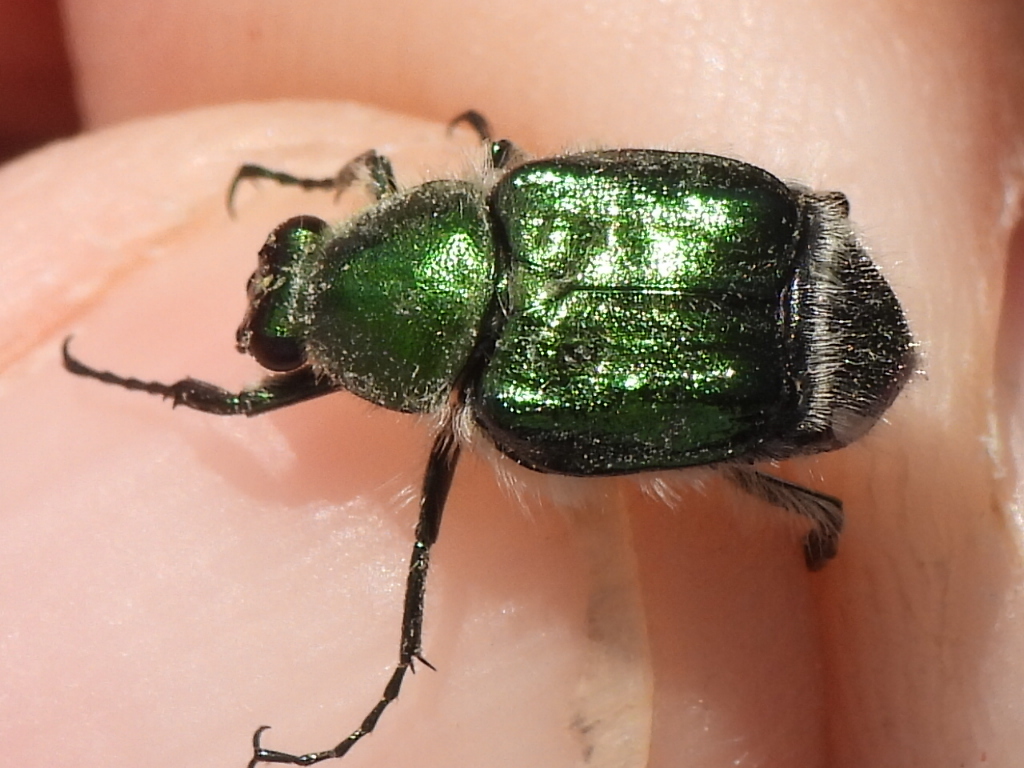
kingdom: Animalia
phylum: Arthropoda
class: Insecta
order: Coleoptera
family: Scarabaeidae
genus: Trichiotinus
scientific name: Trichiotinus lunulatus
